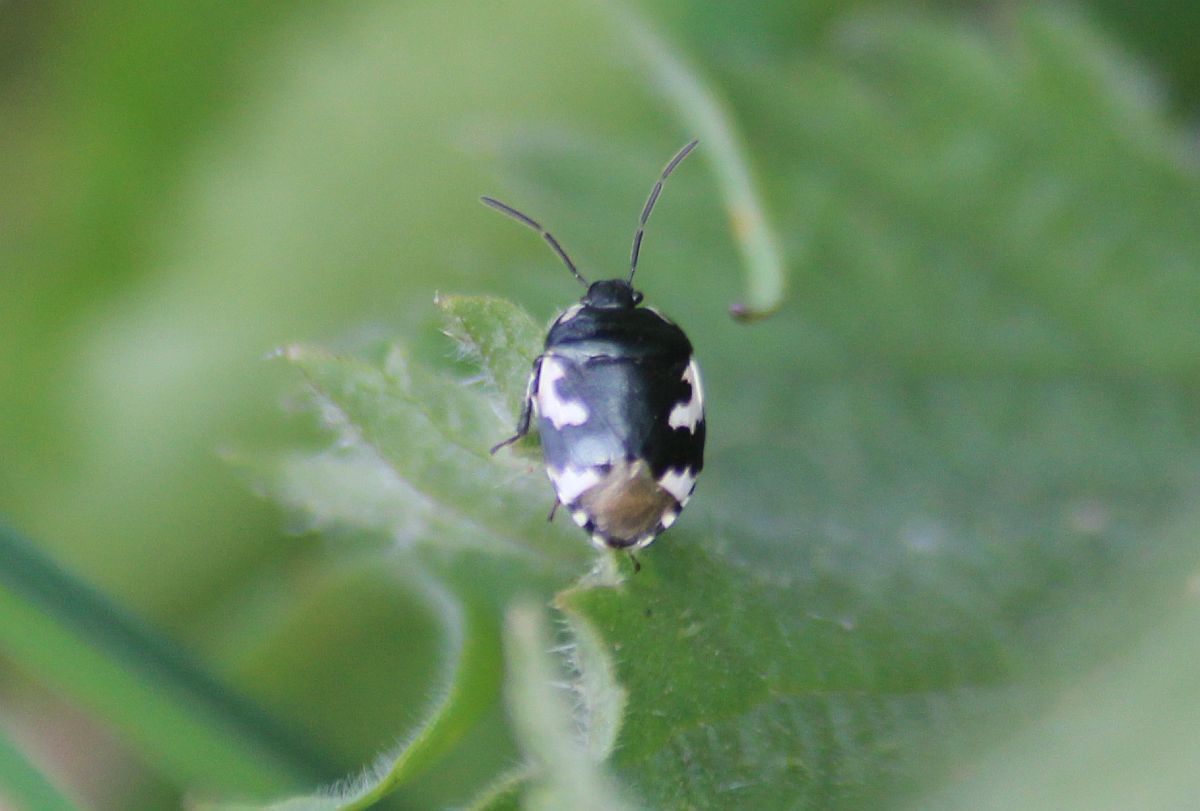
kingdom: Animalia
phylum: Arthropoda
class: Insecta
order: Hemiptera
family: Cydnidae
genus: Tritomegas
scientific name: Tritomegas bicolor
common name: Pied shieldbug
